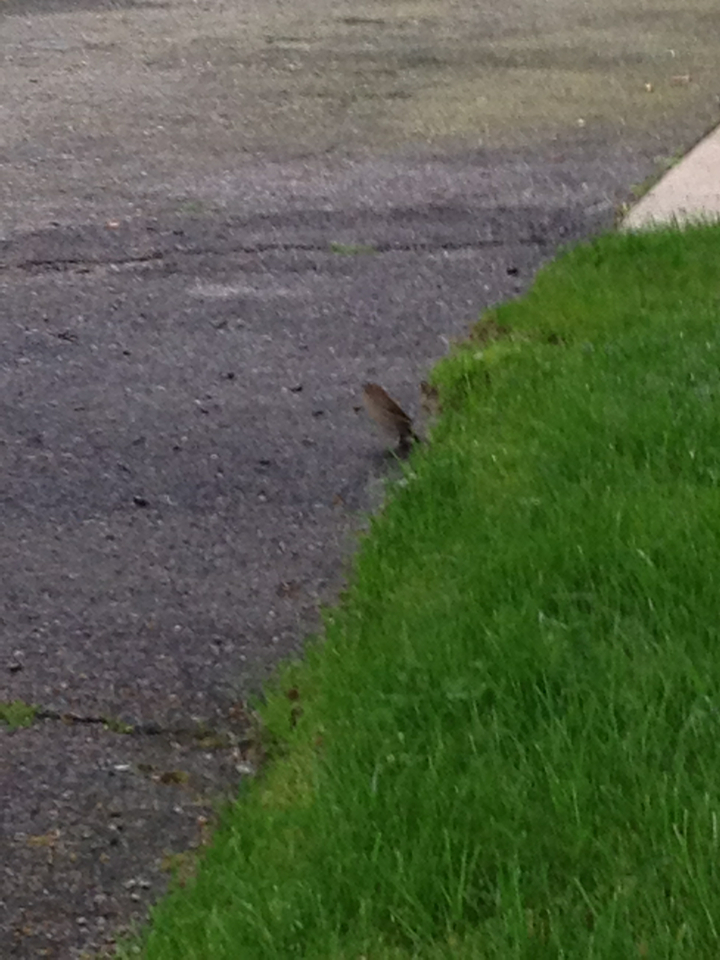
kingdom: Animalia
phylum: Chordata
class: Aves
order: Passeriformes
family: Passeridae
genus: Passer
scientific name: Passer domesticus
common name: House sparrow
